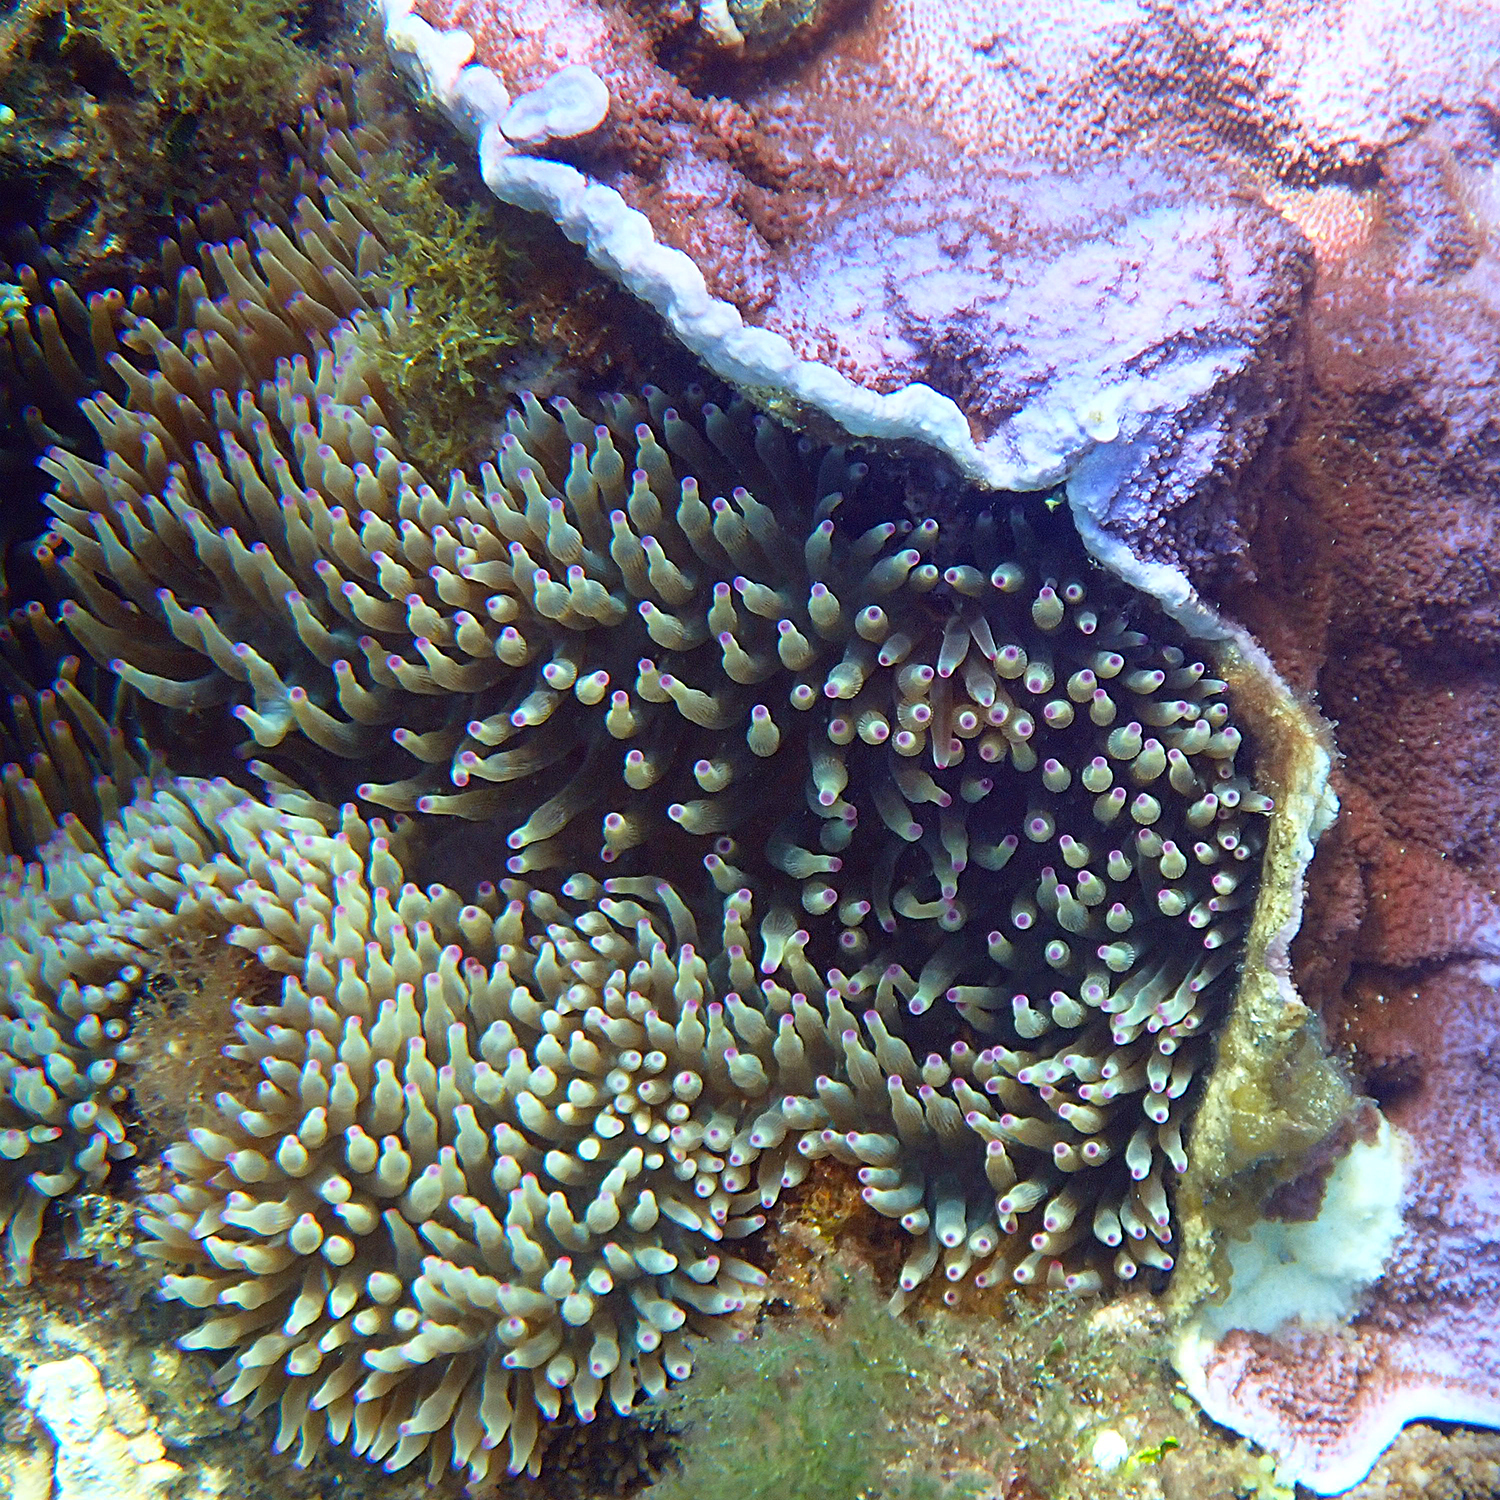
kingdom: Animalia
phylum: Cnidaria
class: Anthozoa
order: Actiniaria
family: Actiniidae
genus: Entacmaea
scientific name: Entacmaea quadricolor
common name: Bulb tentacle sea anemone
